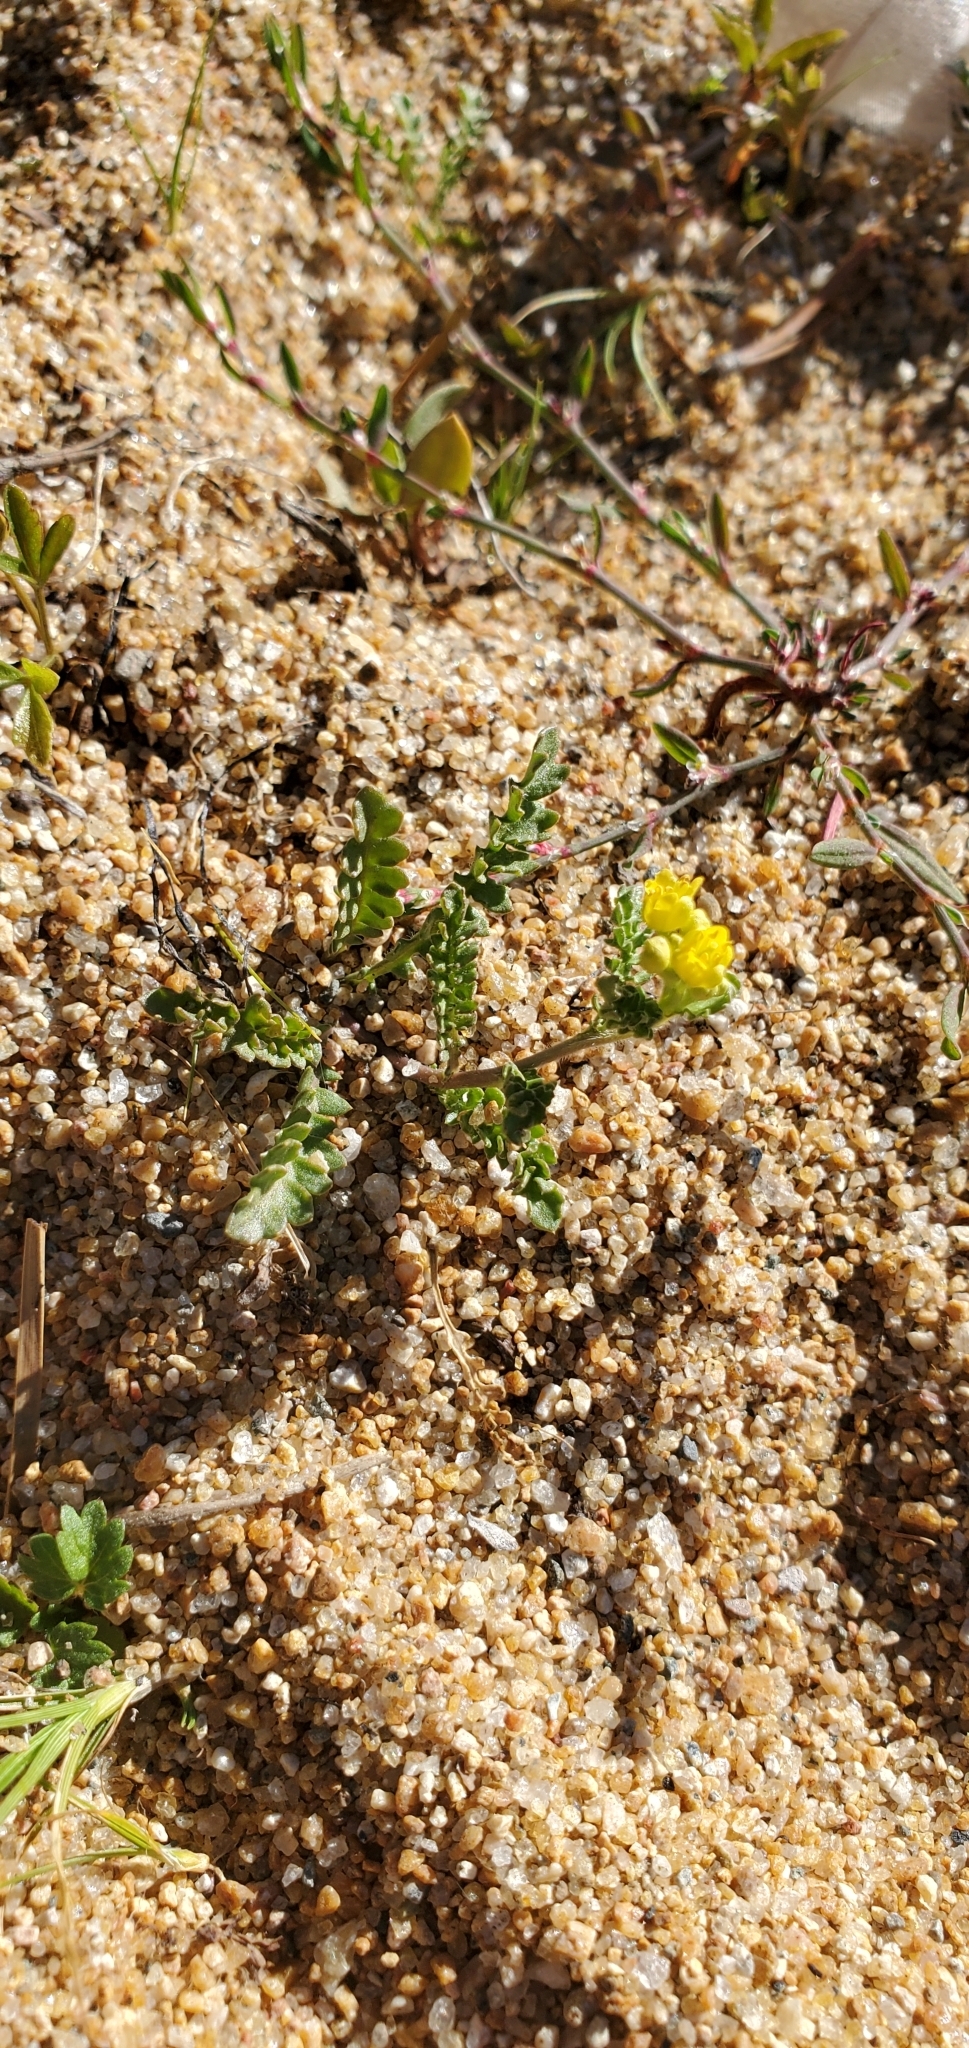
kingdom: Plantae
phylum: Tracheophyta
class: Magnoliopsida
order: Brassicales
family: Brassicaceae
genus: Rorippa
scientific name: Rorippa subumbellata
